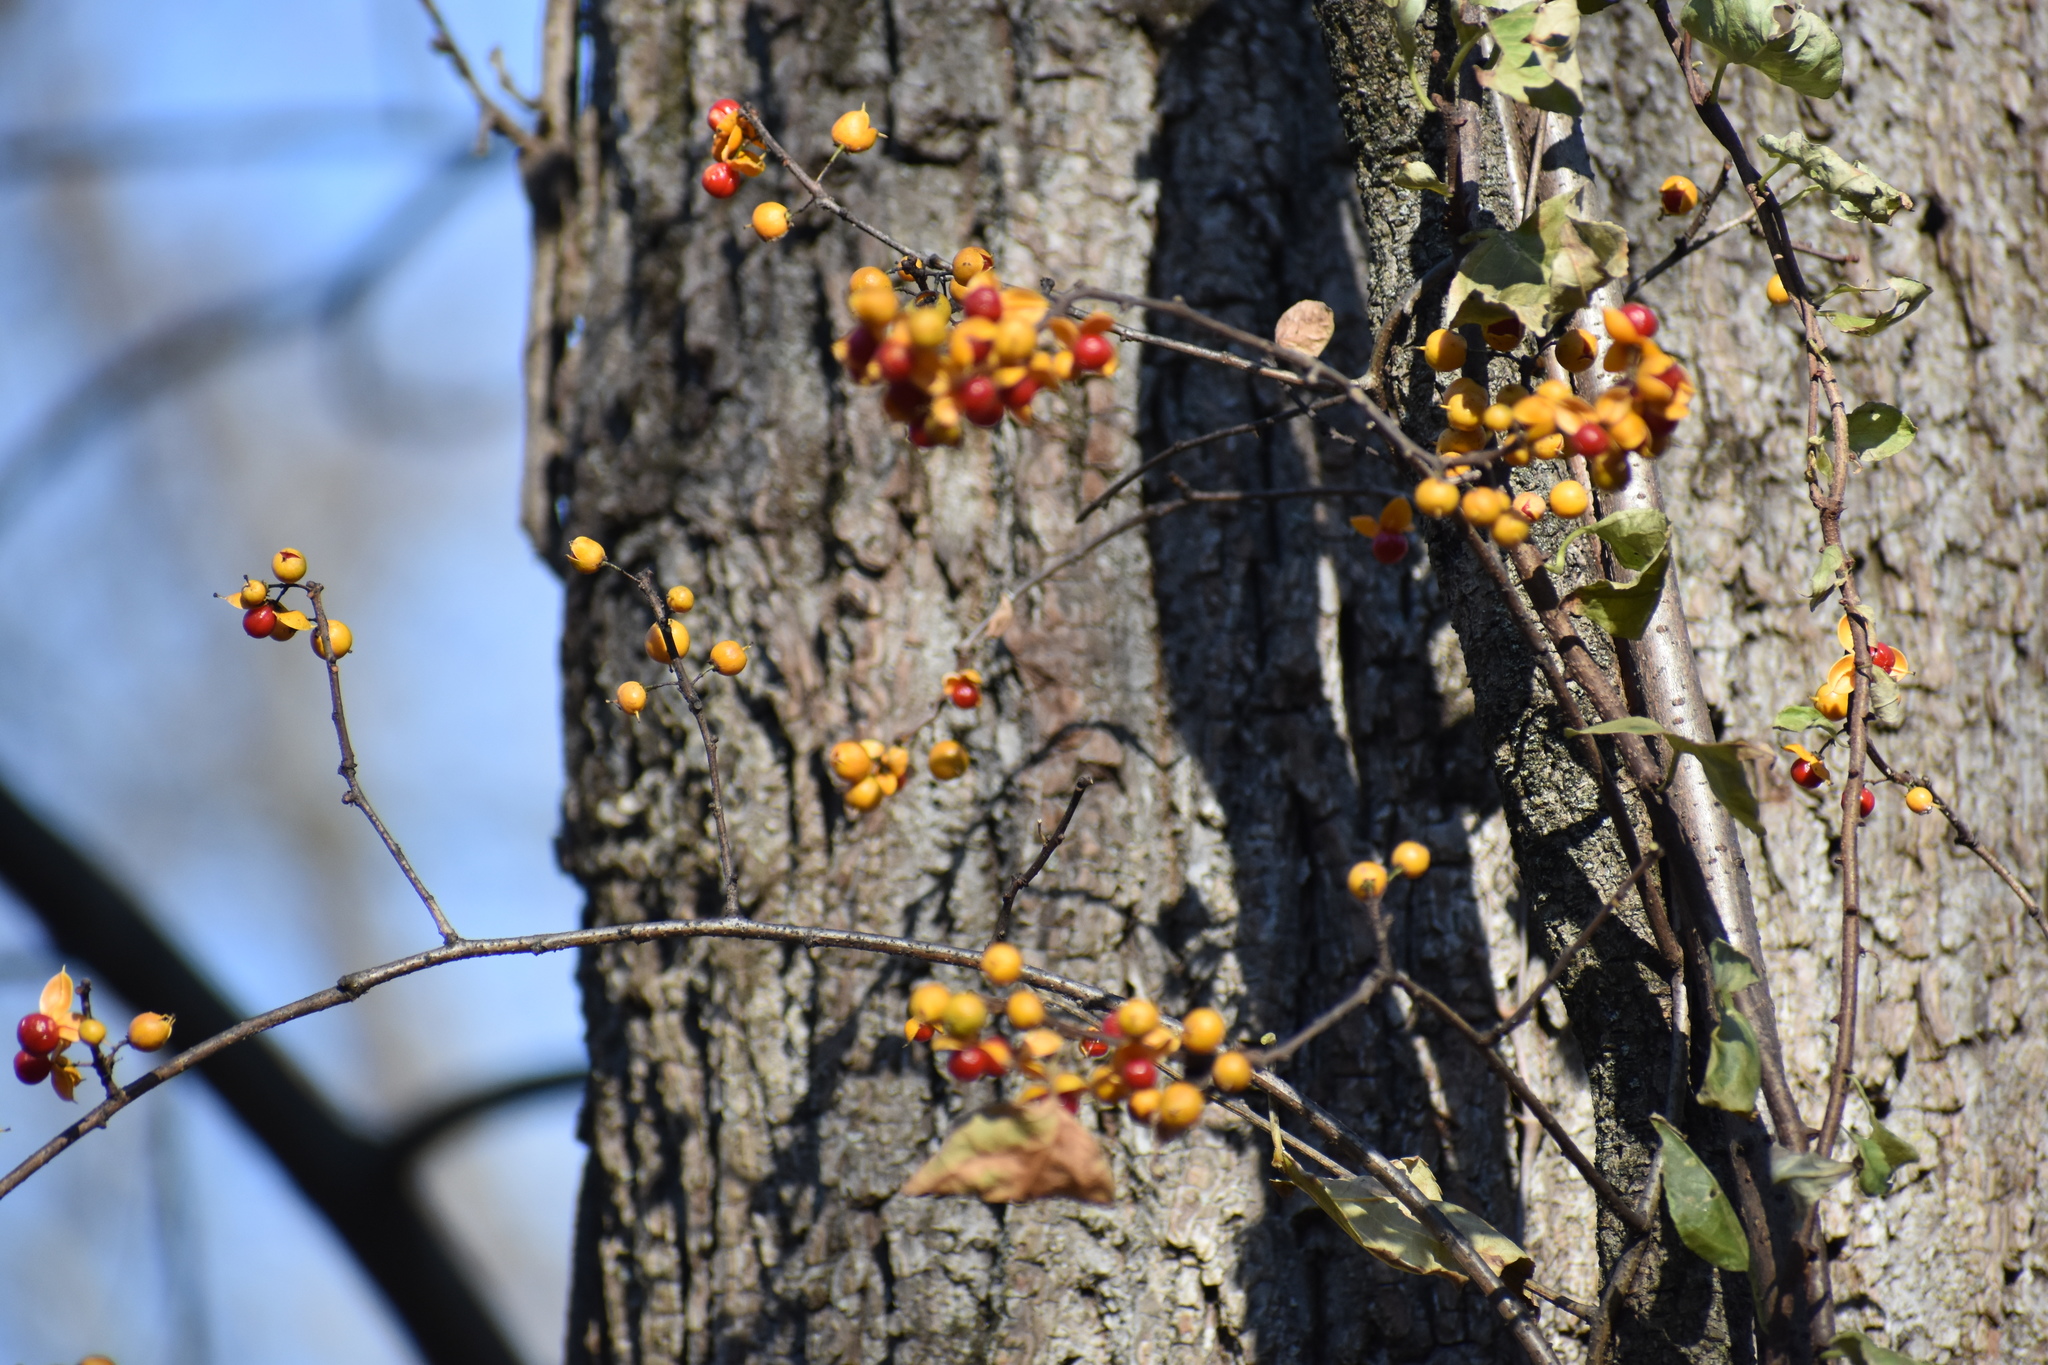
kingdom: Plantae
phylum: Tracheophyta
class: Magnoliopsida
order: Celastrales
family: Celastraceae
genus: Celastrus
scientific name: Celastrus orbiculatus
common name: Oriental bittersweet
